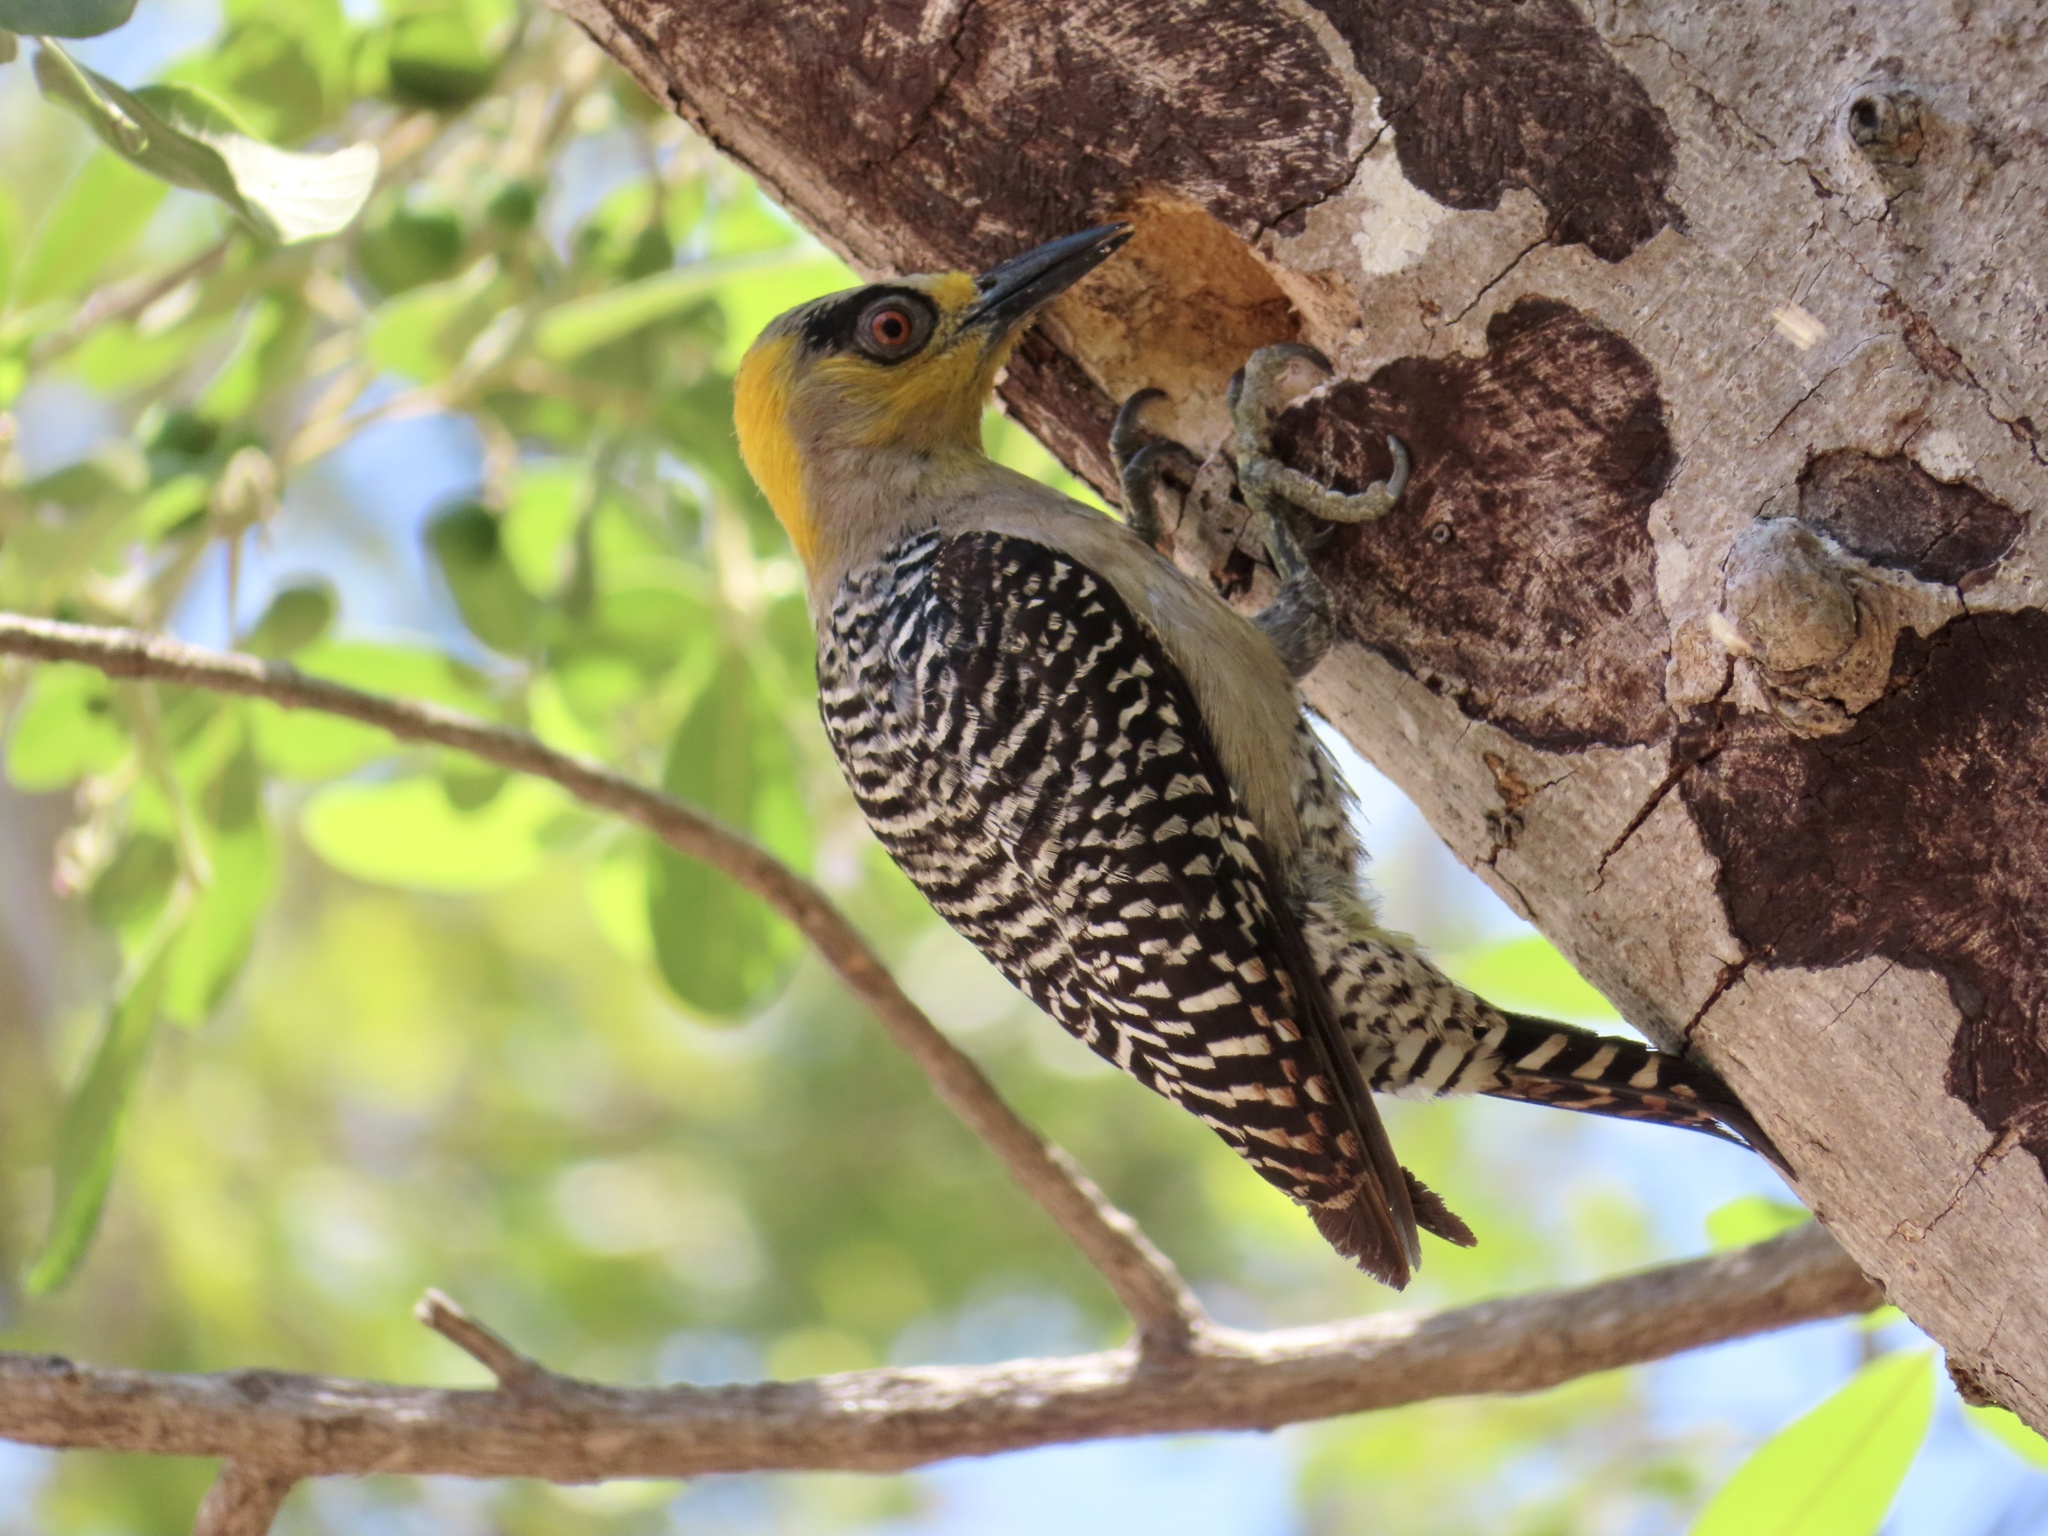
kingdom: Animalia
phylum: Chordata
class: Aves
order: Piciformes
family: Picidae
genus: Melanerpes
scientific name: Melanerpes chrysogenys
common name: Golden-cheeked woodpecker
